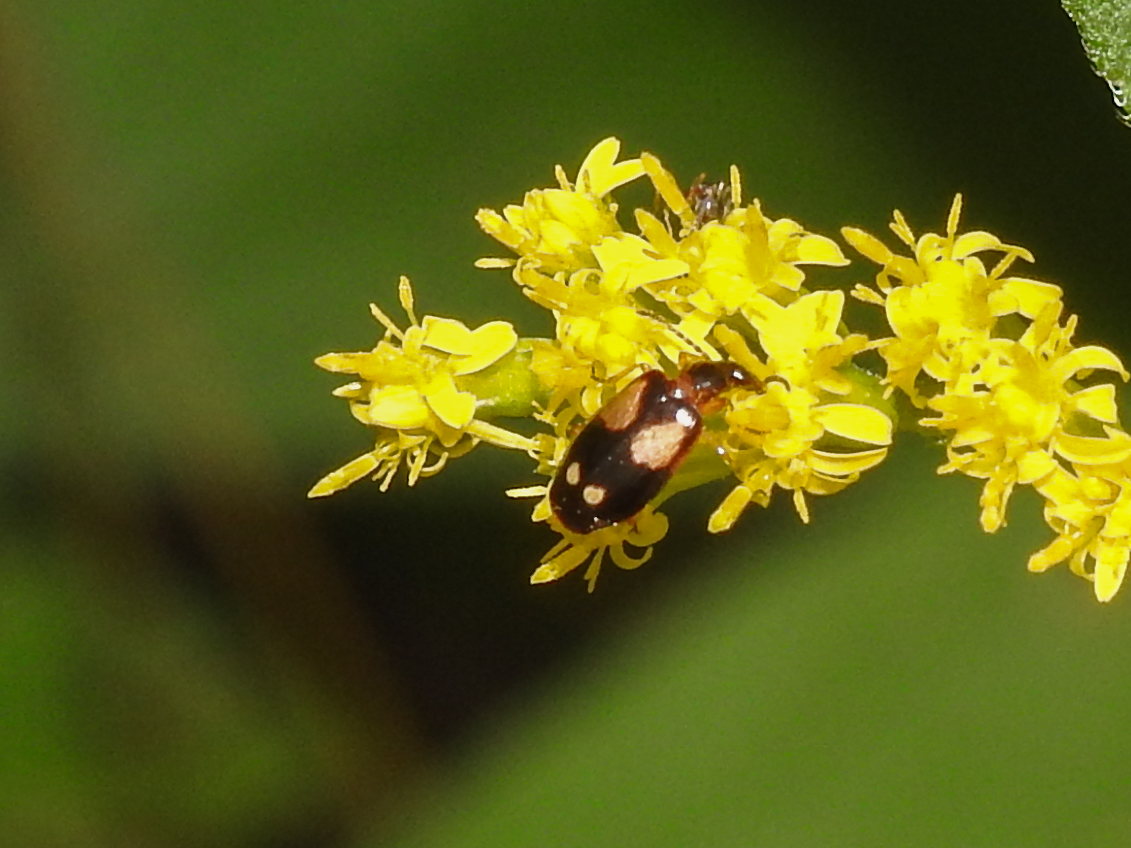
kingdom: Animalia
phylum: Arthropoda
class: Insecta
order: Coleoptera
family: Carabidae
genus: Lebia
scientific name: Lebia ornata
